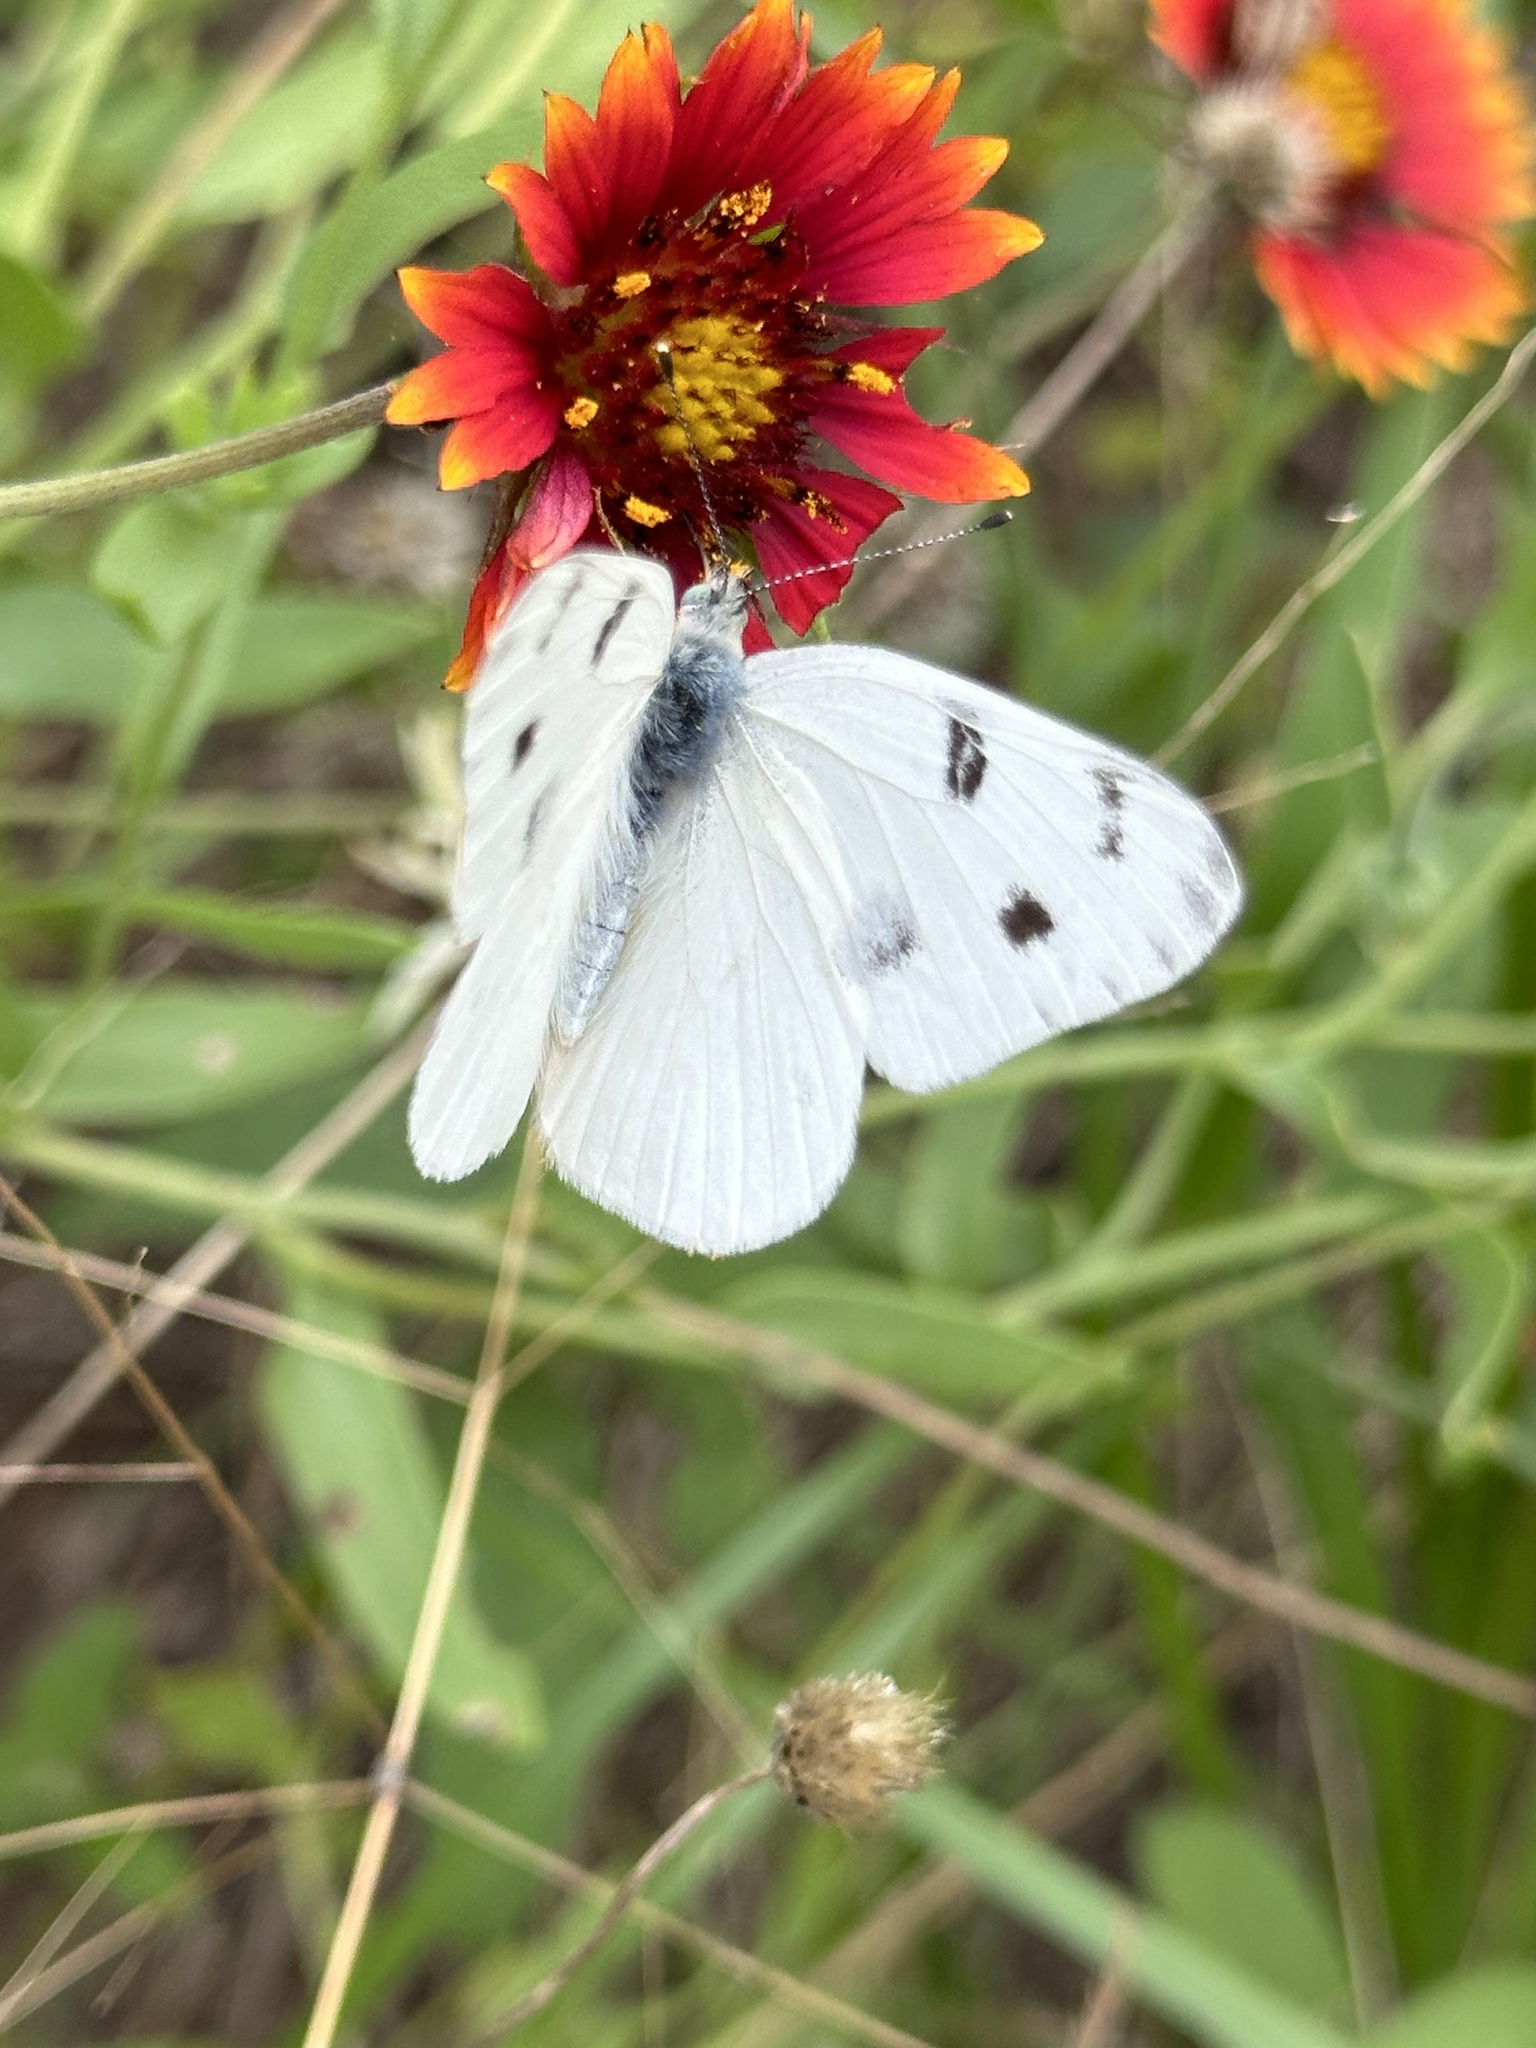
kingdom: Animalia
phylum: Arthropoda
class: Insecta
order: Lepidoptera
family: Pieridae
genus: Pontia
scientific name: Pontia protodice
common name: Checkered white
